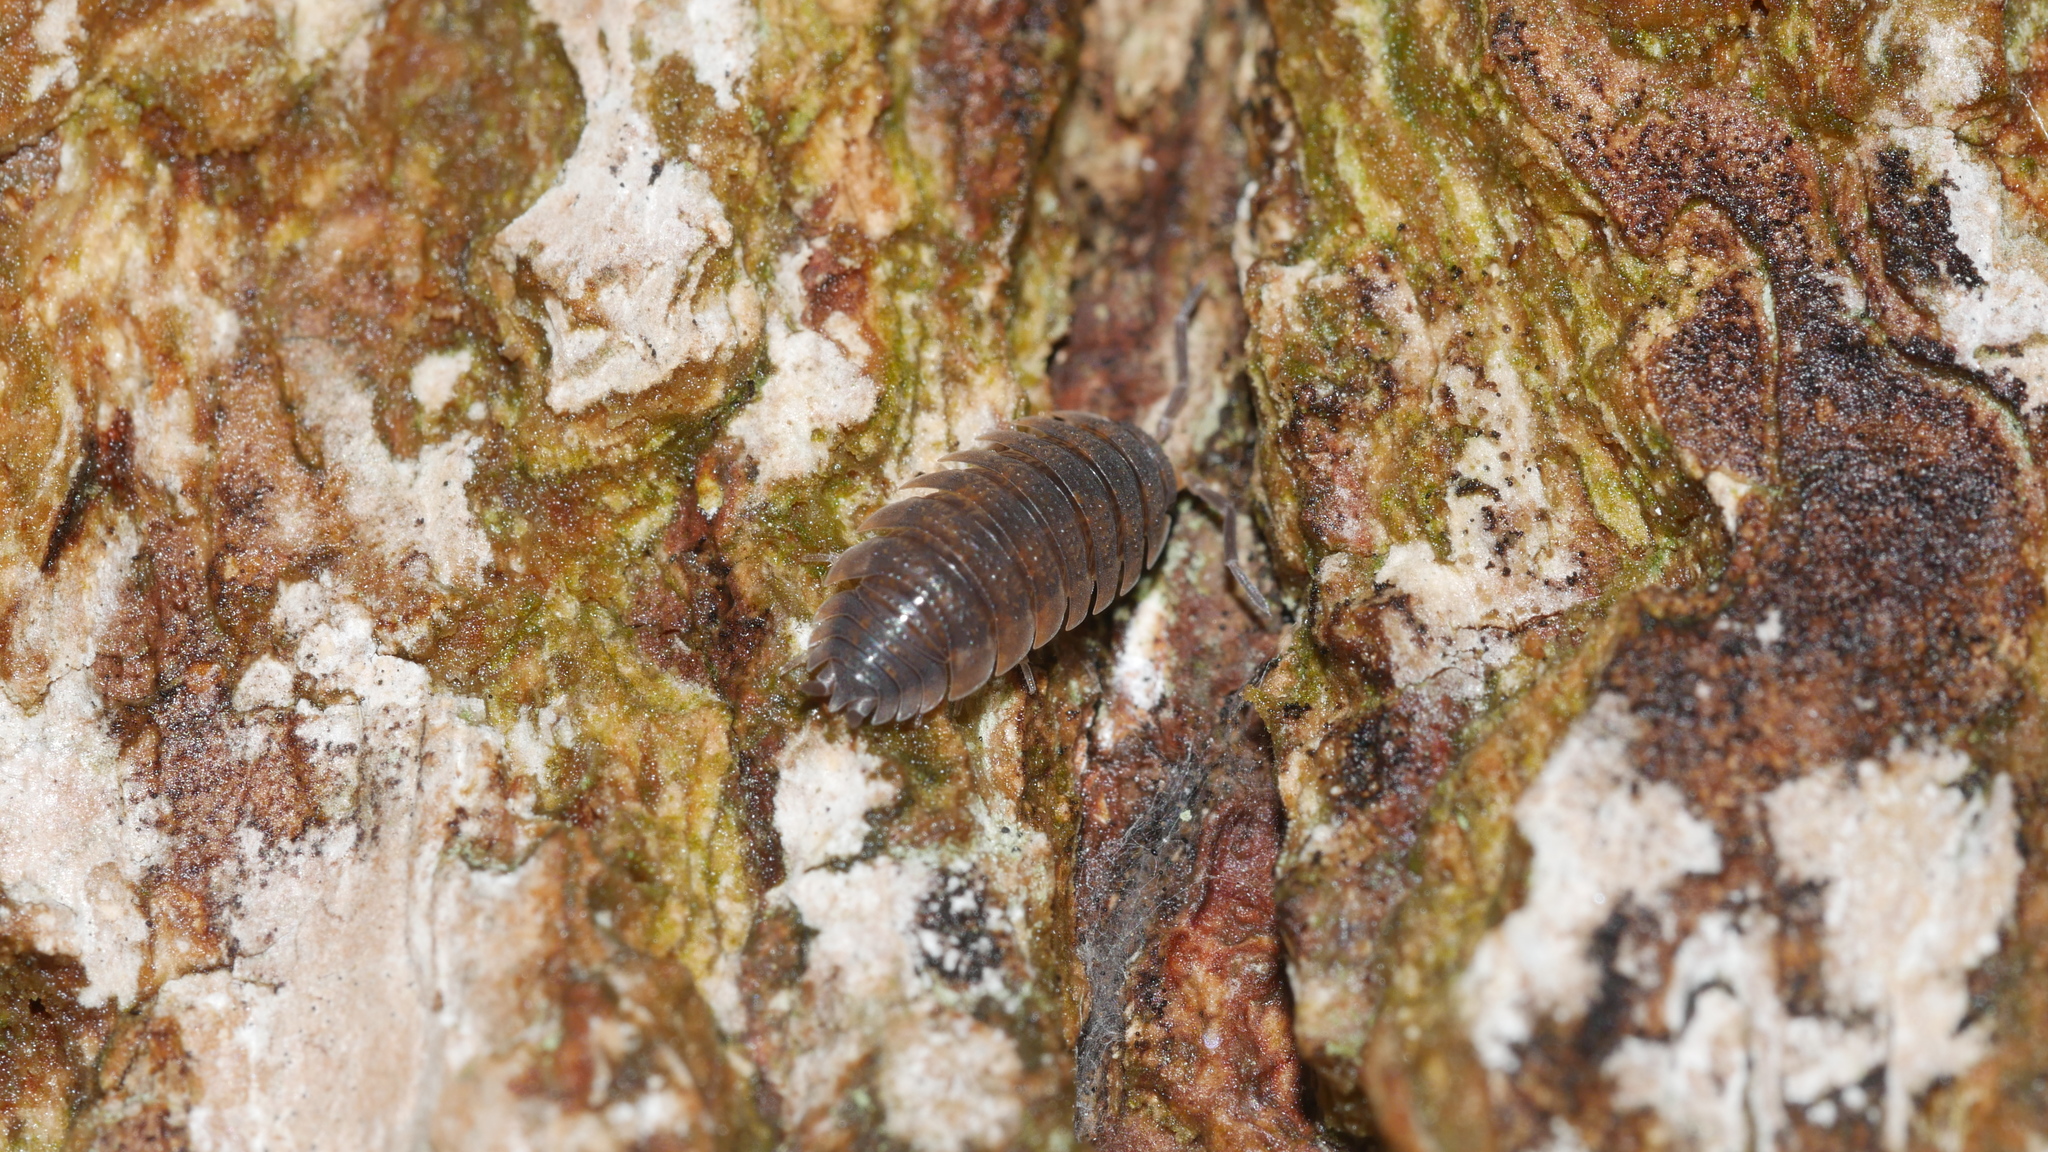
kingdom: Animalia
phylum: Arthropoda
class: Malacostraca
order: Isopoda
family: Porcellionidae
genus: Porcellio
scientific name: Porcellio scaber
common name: Common rough woodlouse
